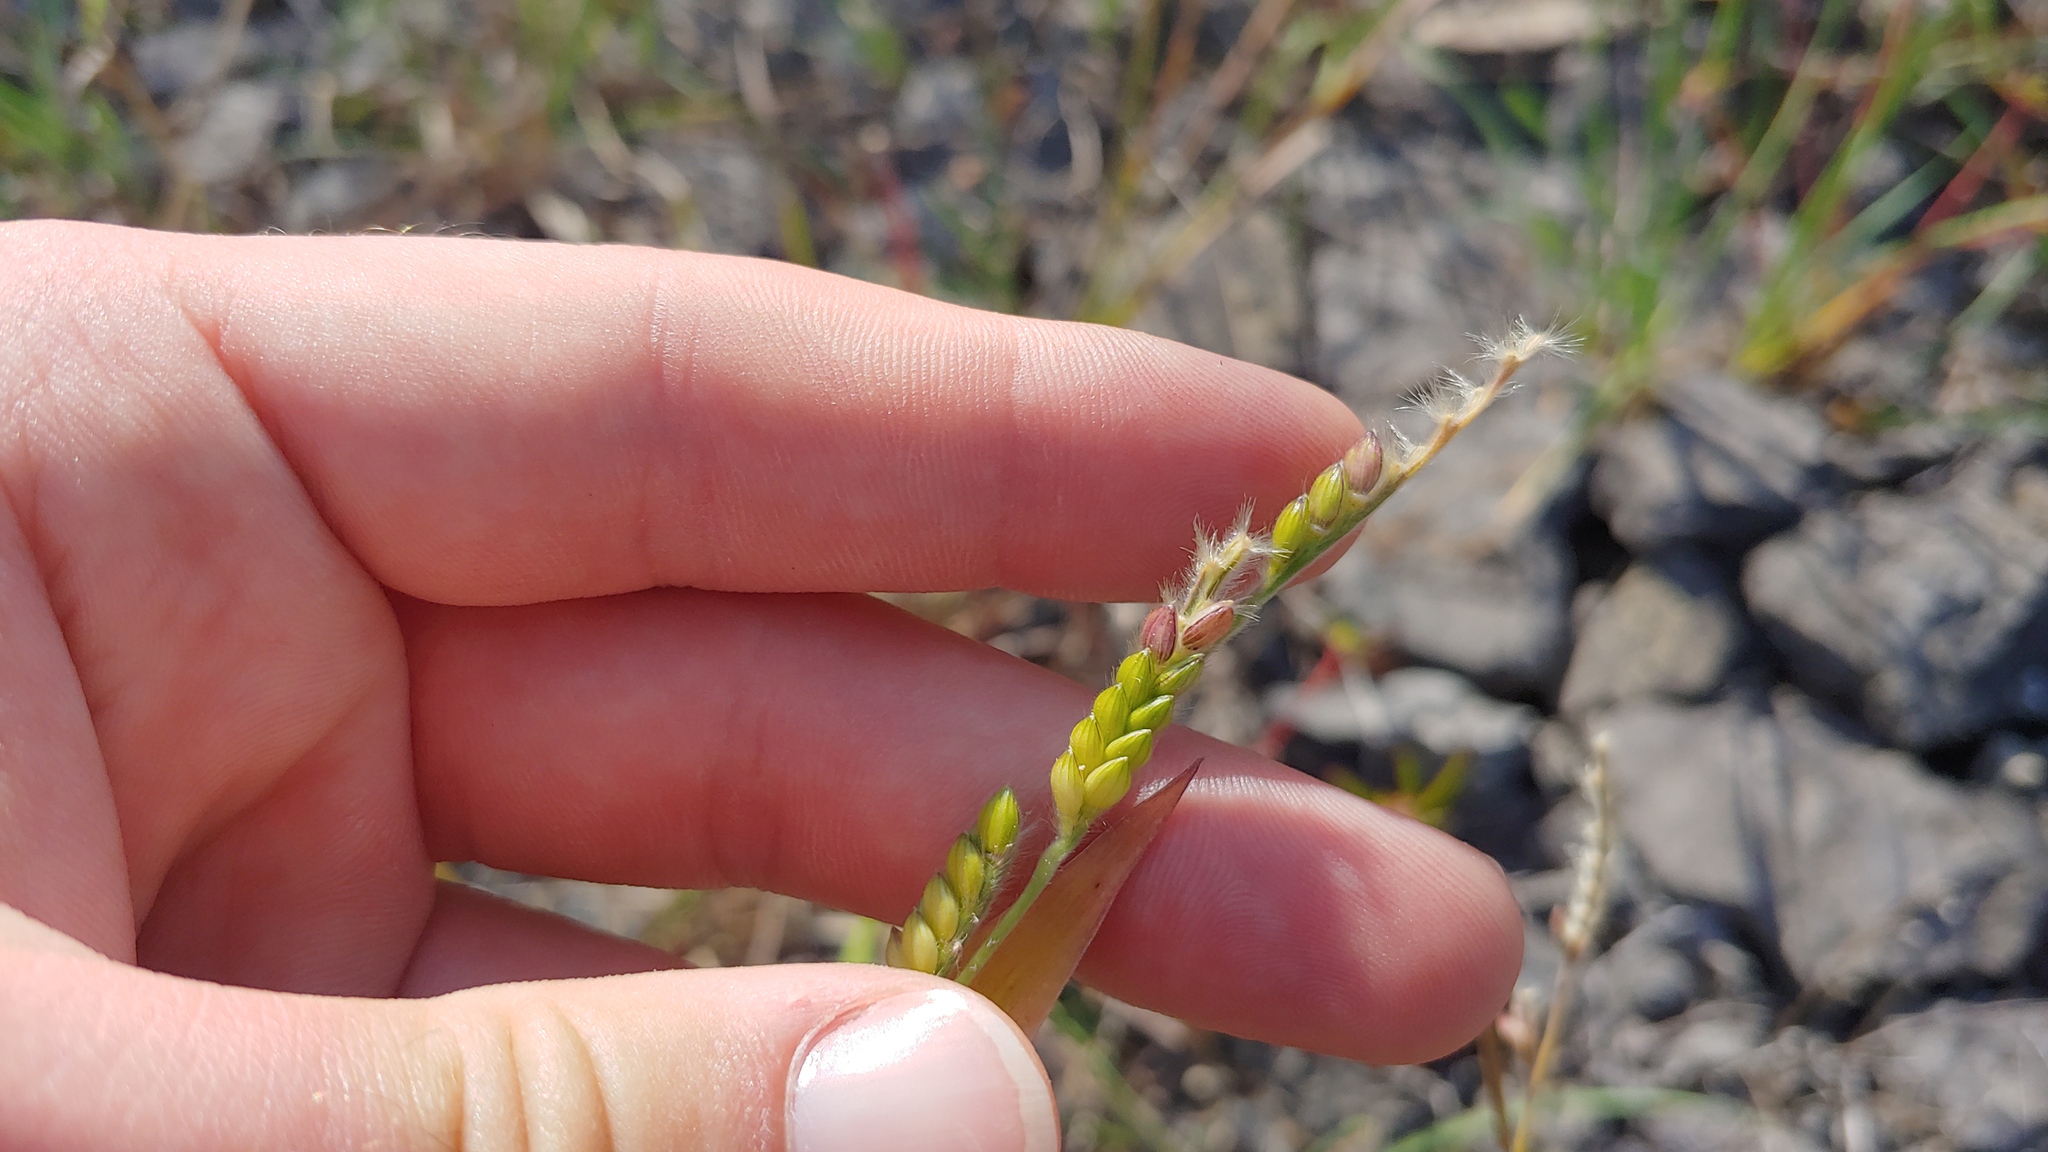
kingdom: Plantae
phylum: Tracheophyta
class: Liliopsida
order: Poales
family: Poaceae
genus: Eriochloa
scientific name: Eriochloa villosa
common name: Hairy cupgrass
